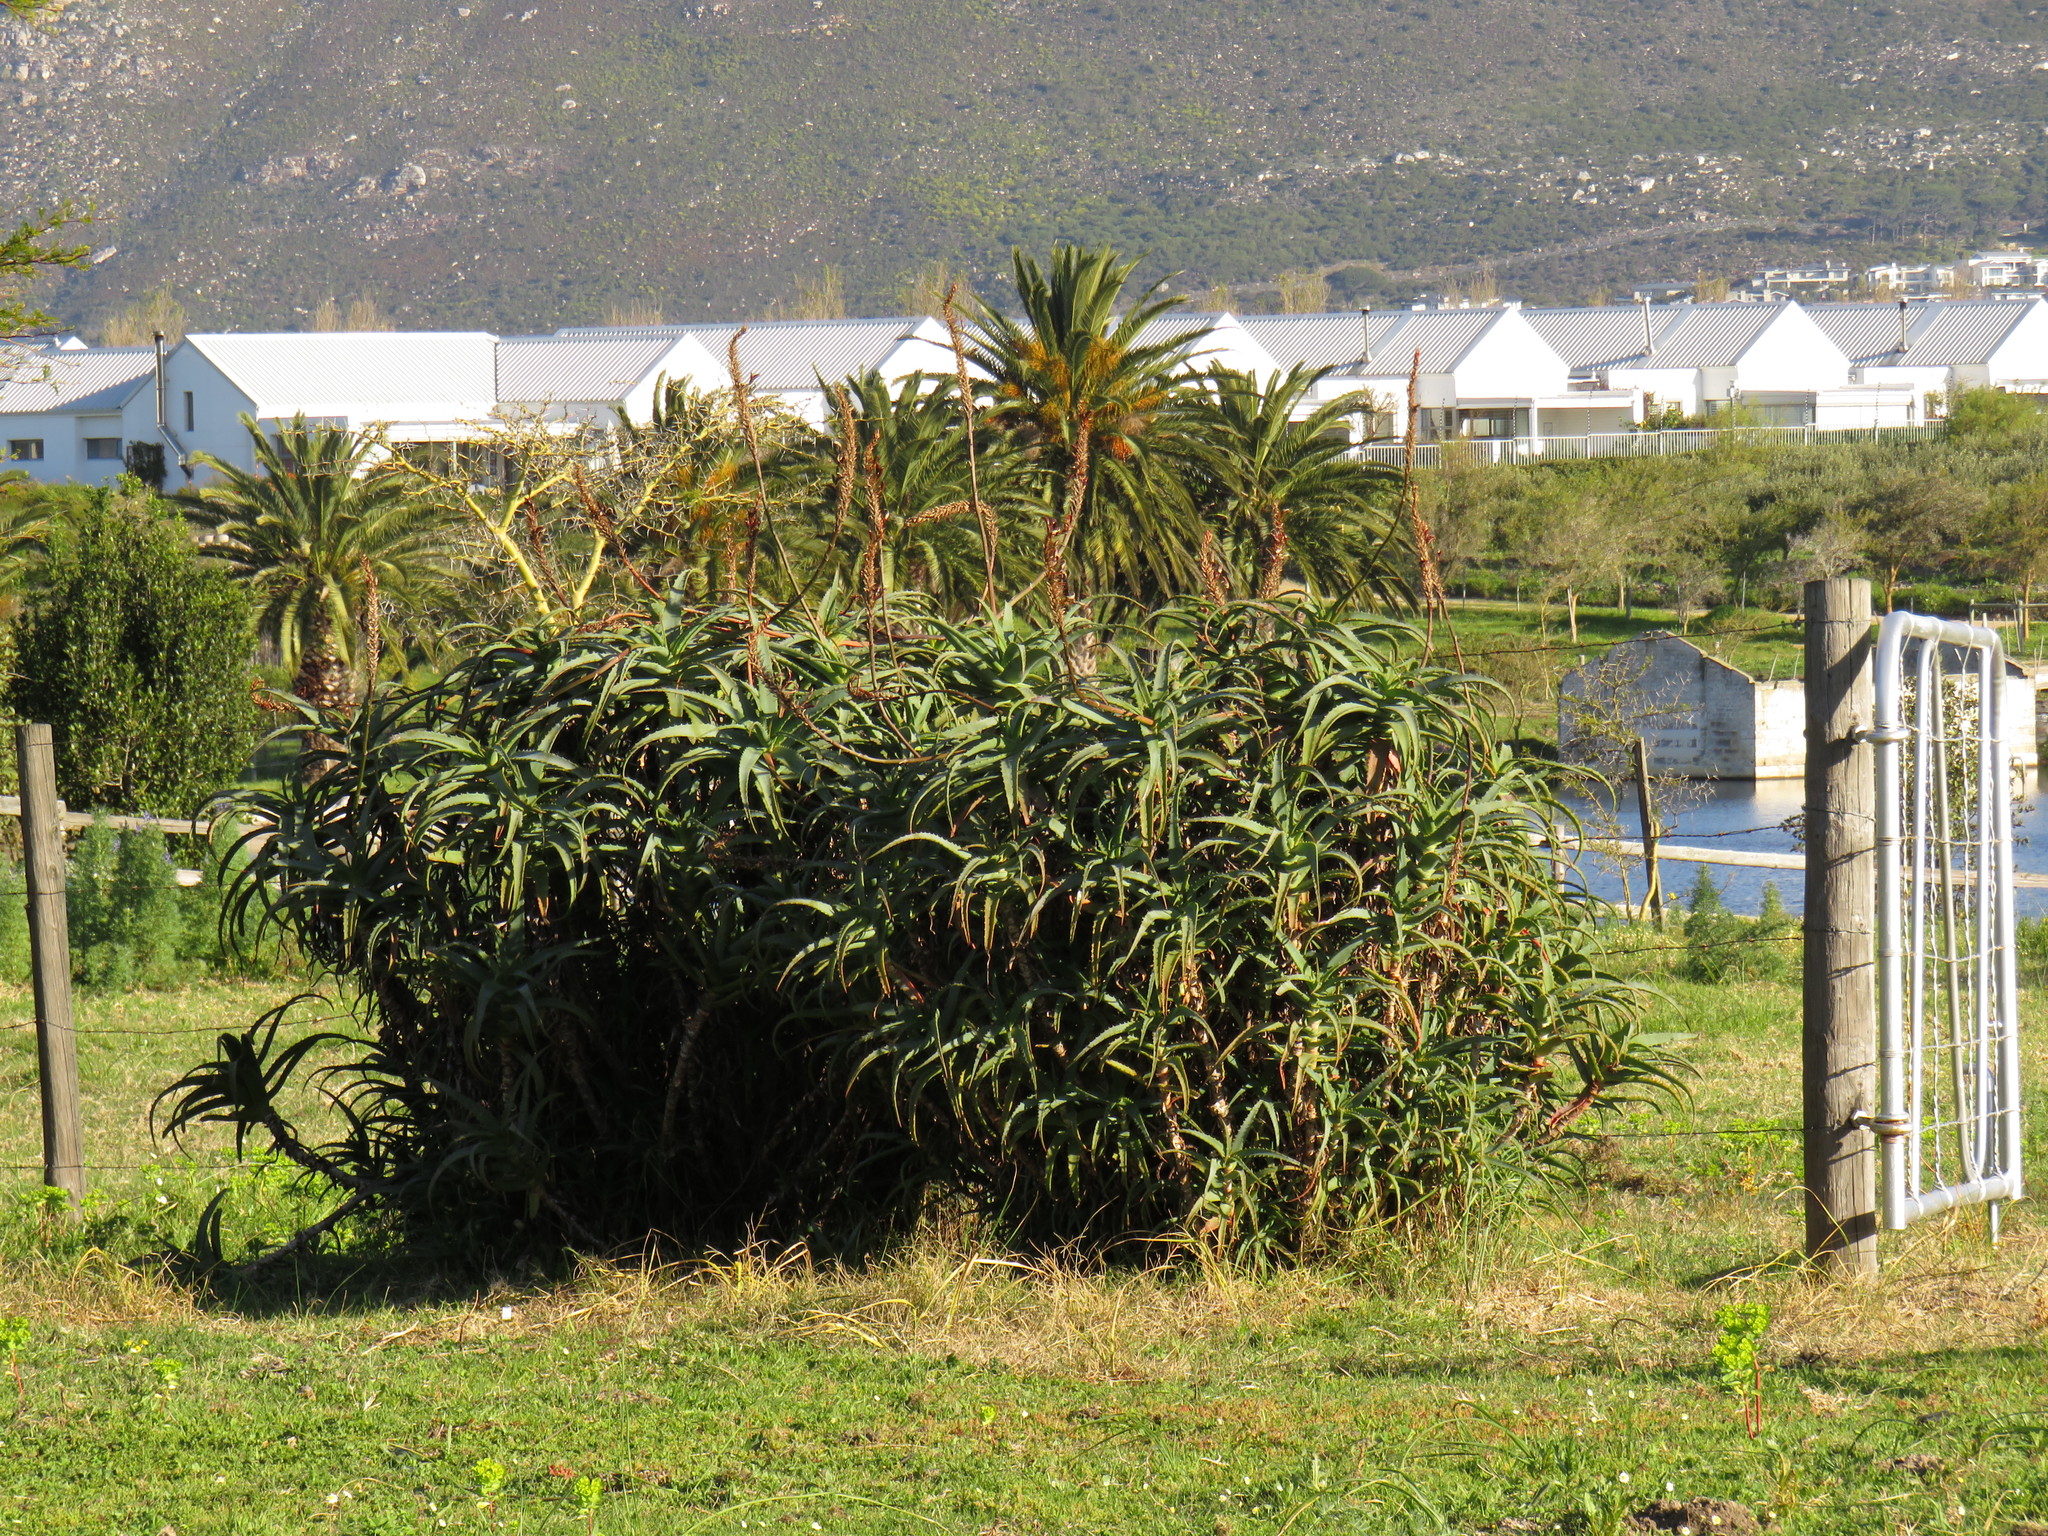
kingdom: Plantae
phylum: Tracheophyta
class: Liliopsida
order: Asparagales
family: Asphodelaceae
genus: Aloe
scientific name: Aloe arborescens
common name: Candelabra aloe
